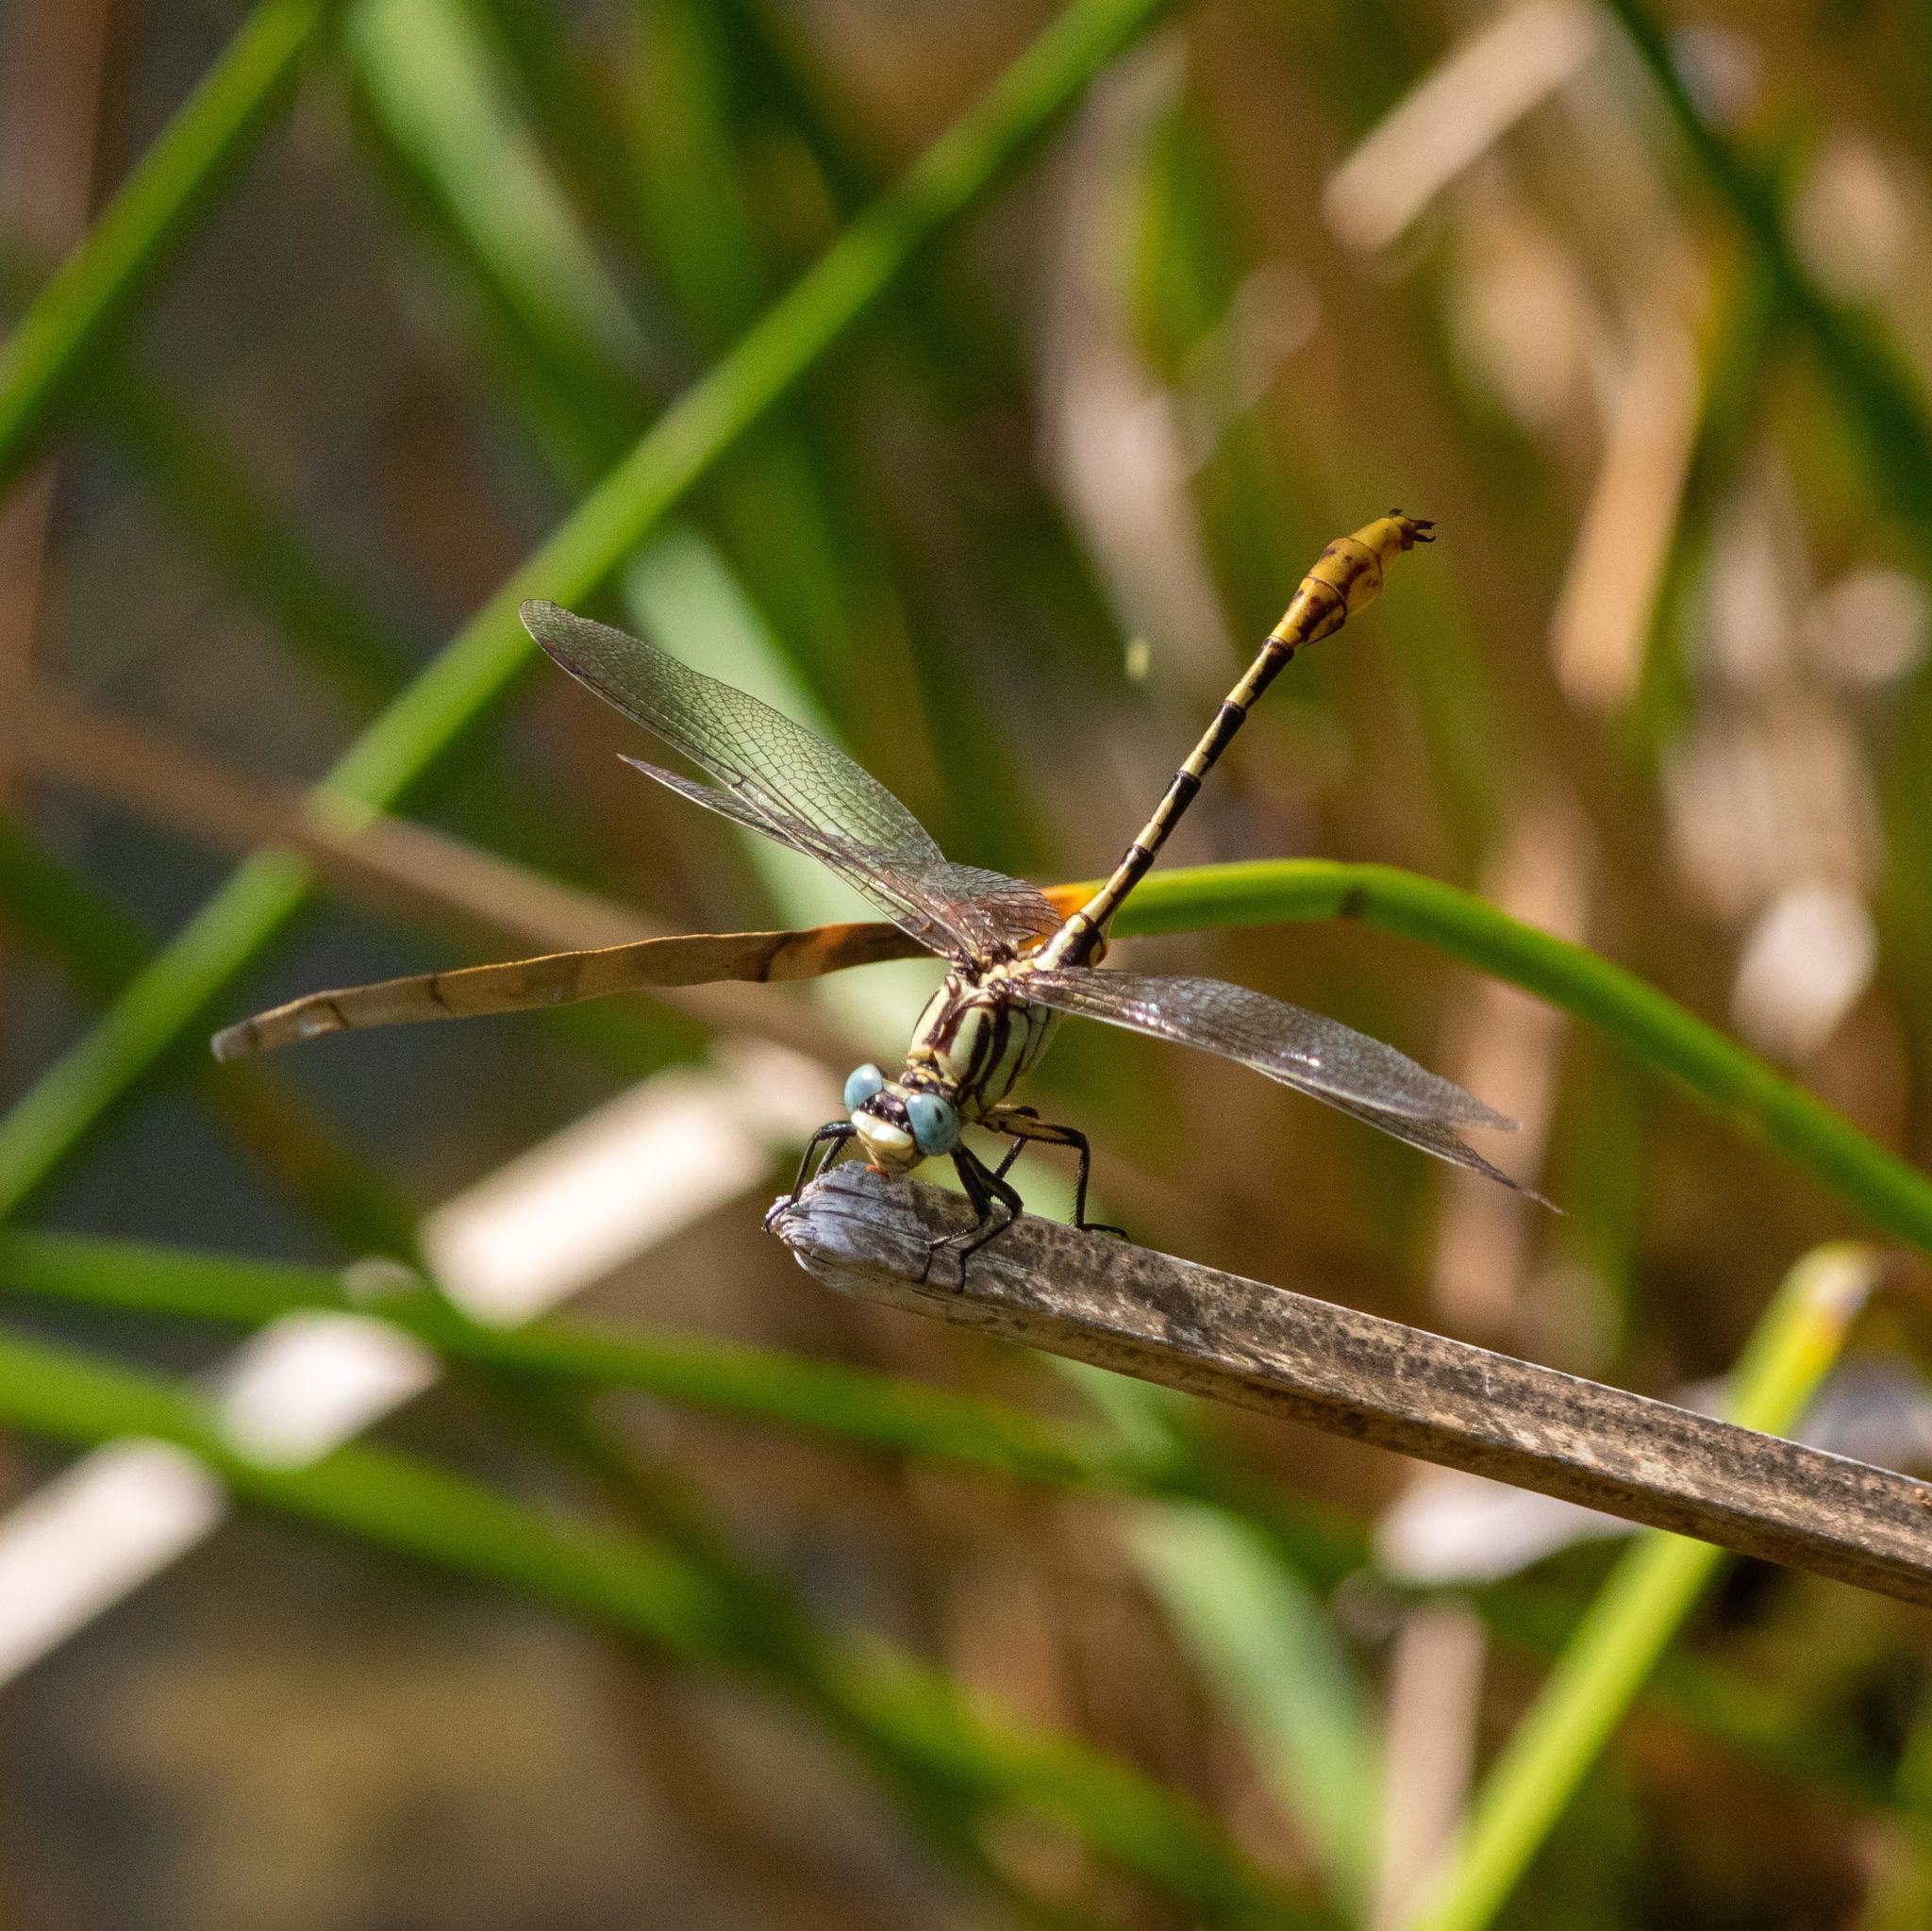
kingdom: Animalia
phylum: Arthropoda
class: Insecta
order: Odonata
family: Gomphidae
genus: Phanogomphus
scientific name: Phanogomphus militaris
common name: Sulphur-tipped clubtail
